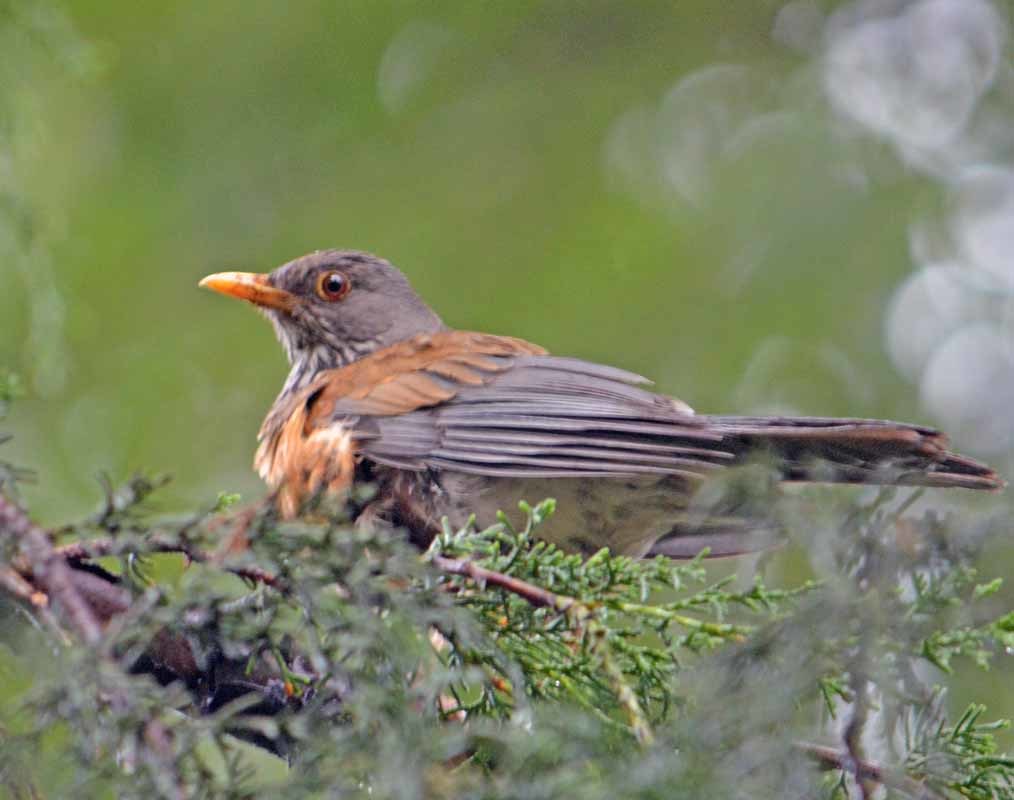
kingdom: Animalia
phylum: Chordata
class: Aves
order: Passeriformes
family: Turdidae
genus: Turdus
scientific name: Turdus rufopalliatus
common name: Rufous-backed robin
